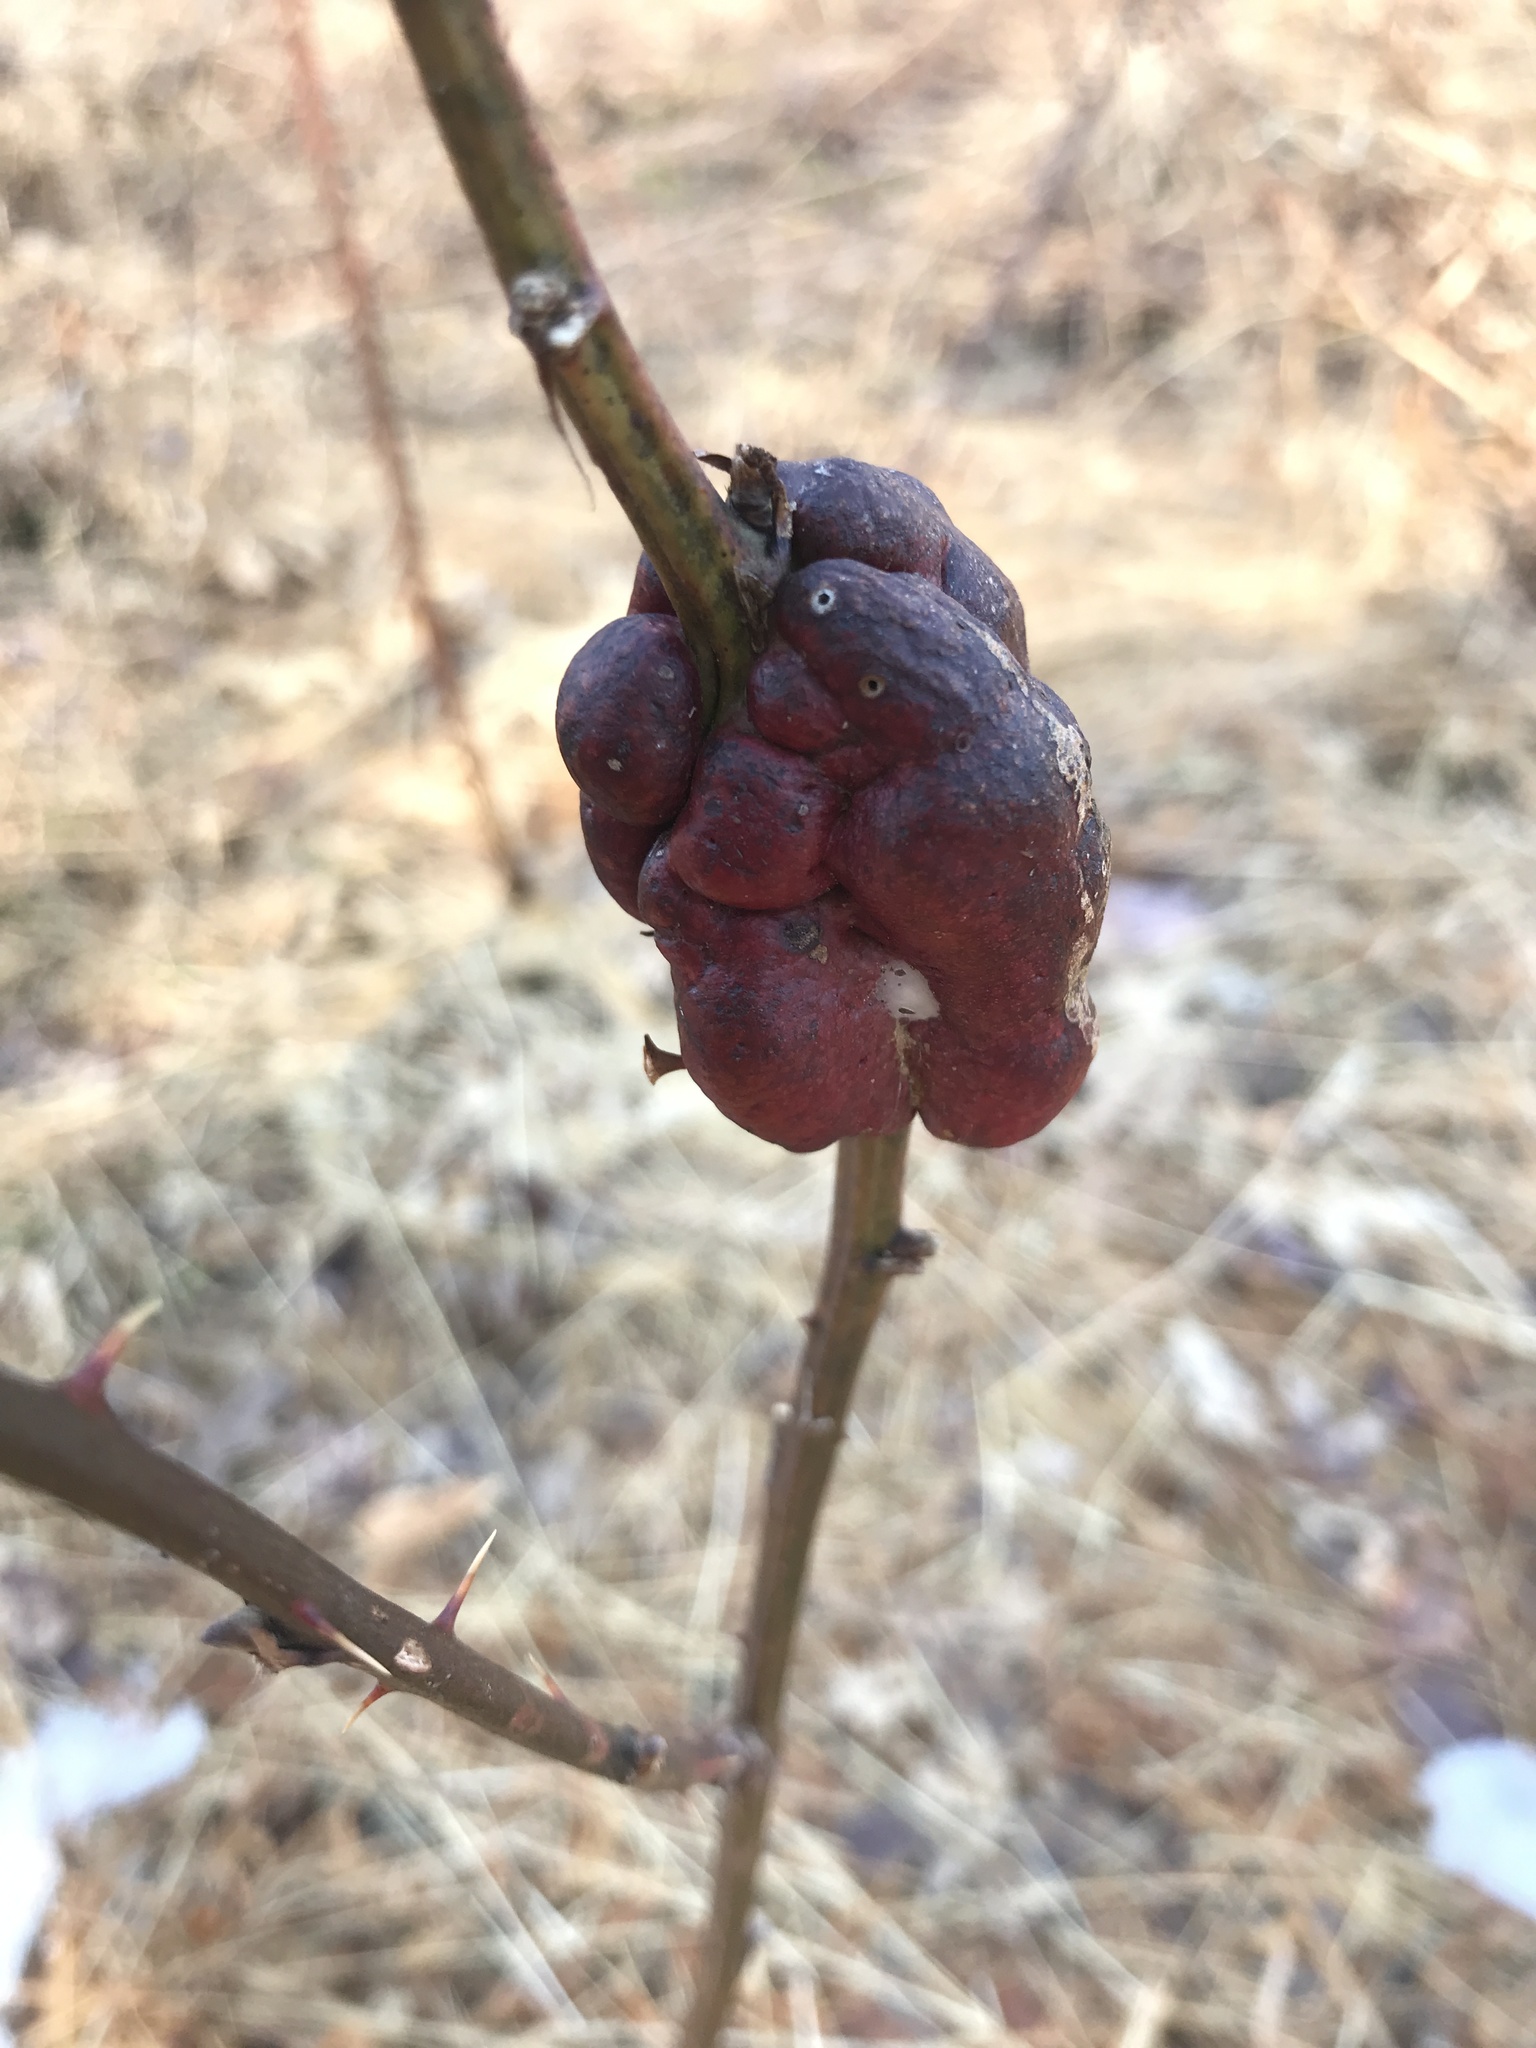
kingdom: Animalia
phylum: Arthropoda
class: Insecta
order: Hymenoptera
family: Cynipidae
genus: Diastrophus
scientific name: Diastrophus
